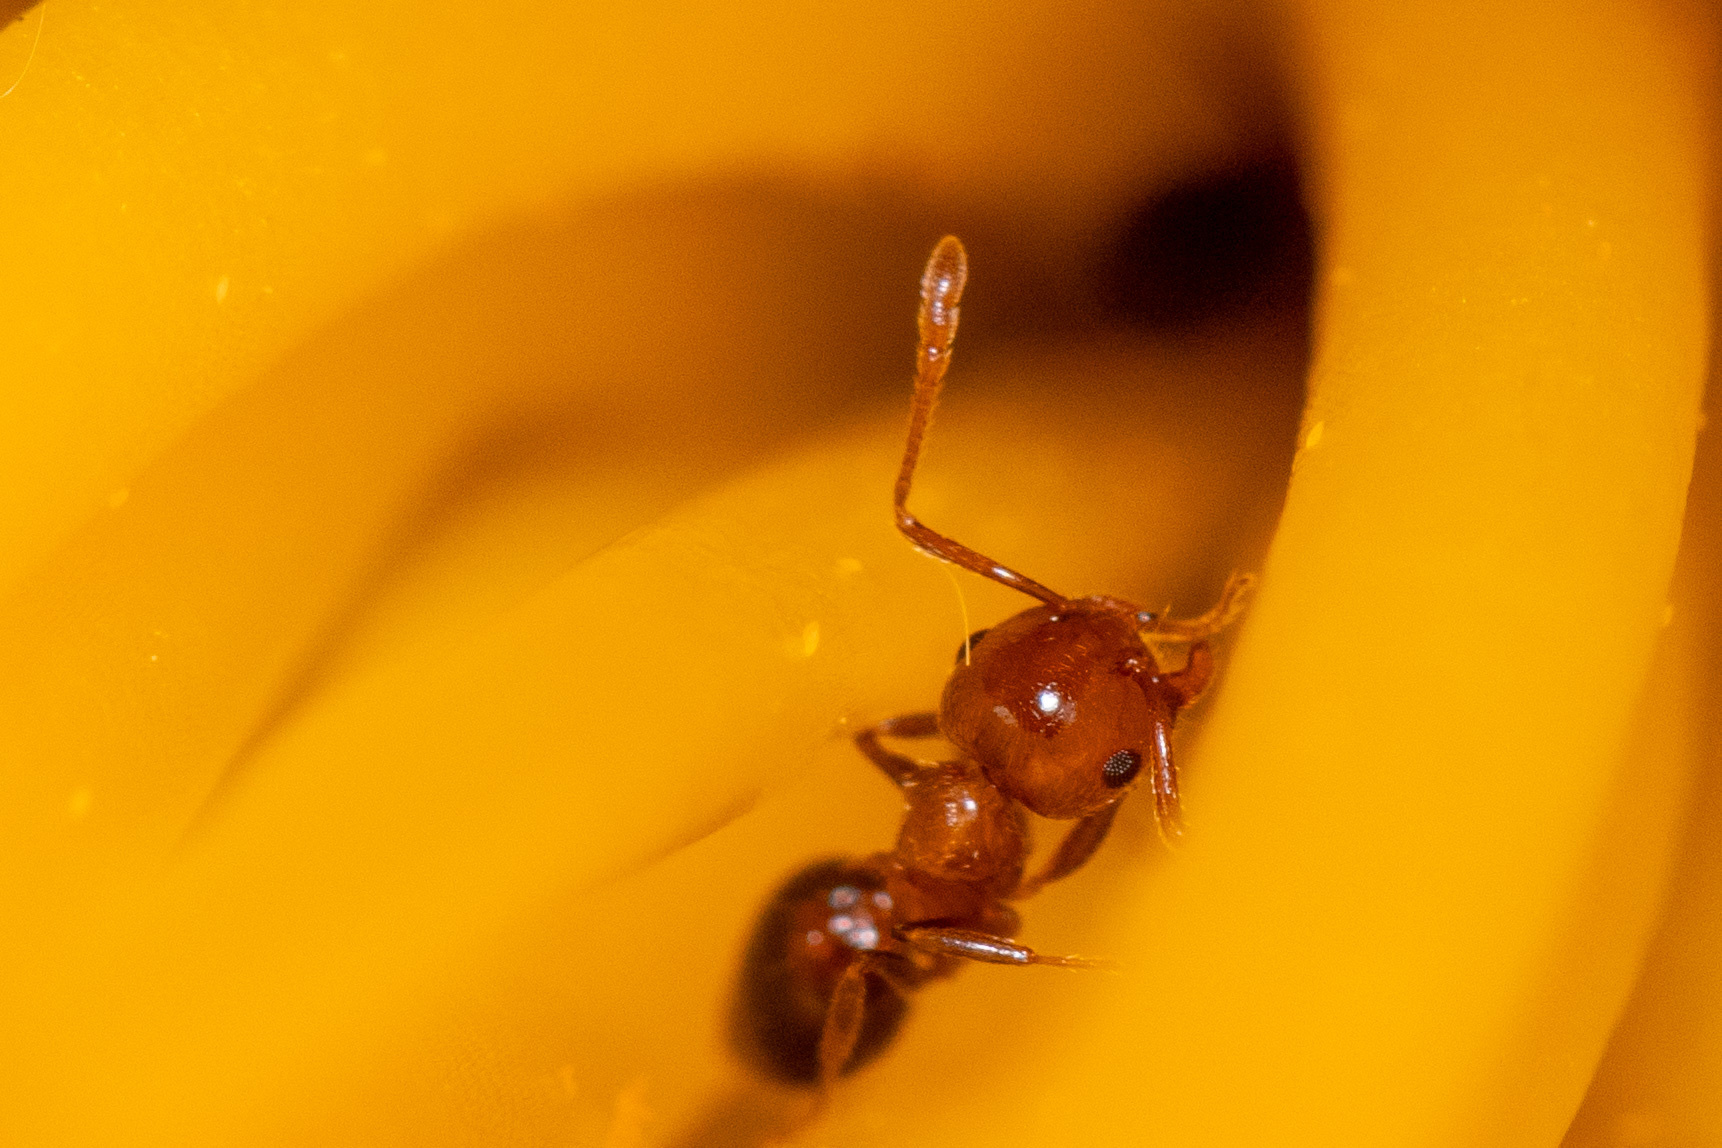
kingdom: Animalia
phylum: Arthropoda
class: Insecta
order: Hymenoptera
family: Formicidae
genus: Crematogaster
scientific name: Crematogaster laeviuscula
